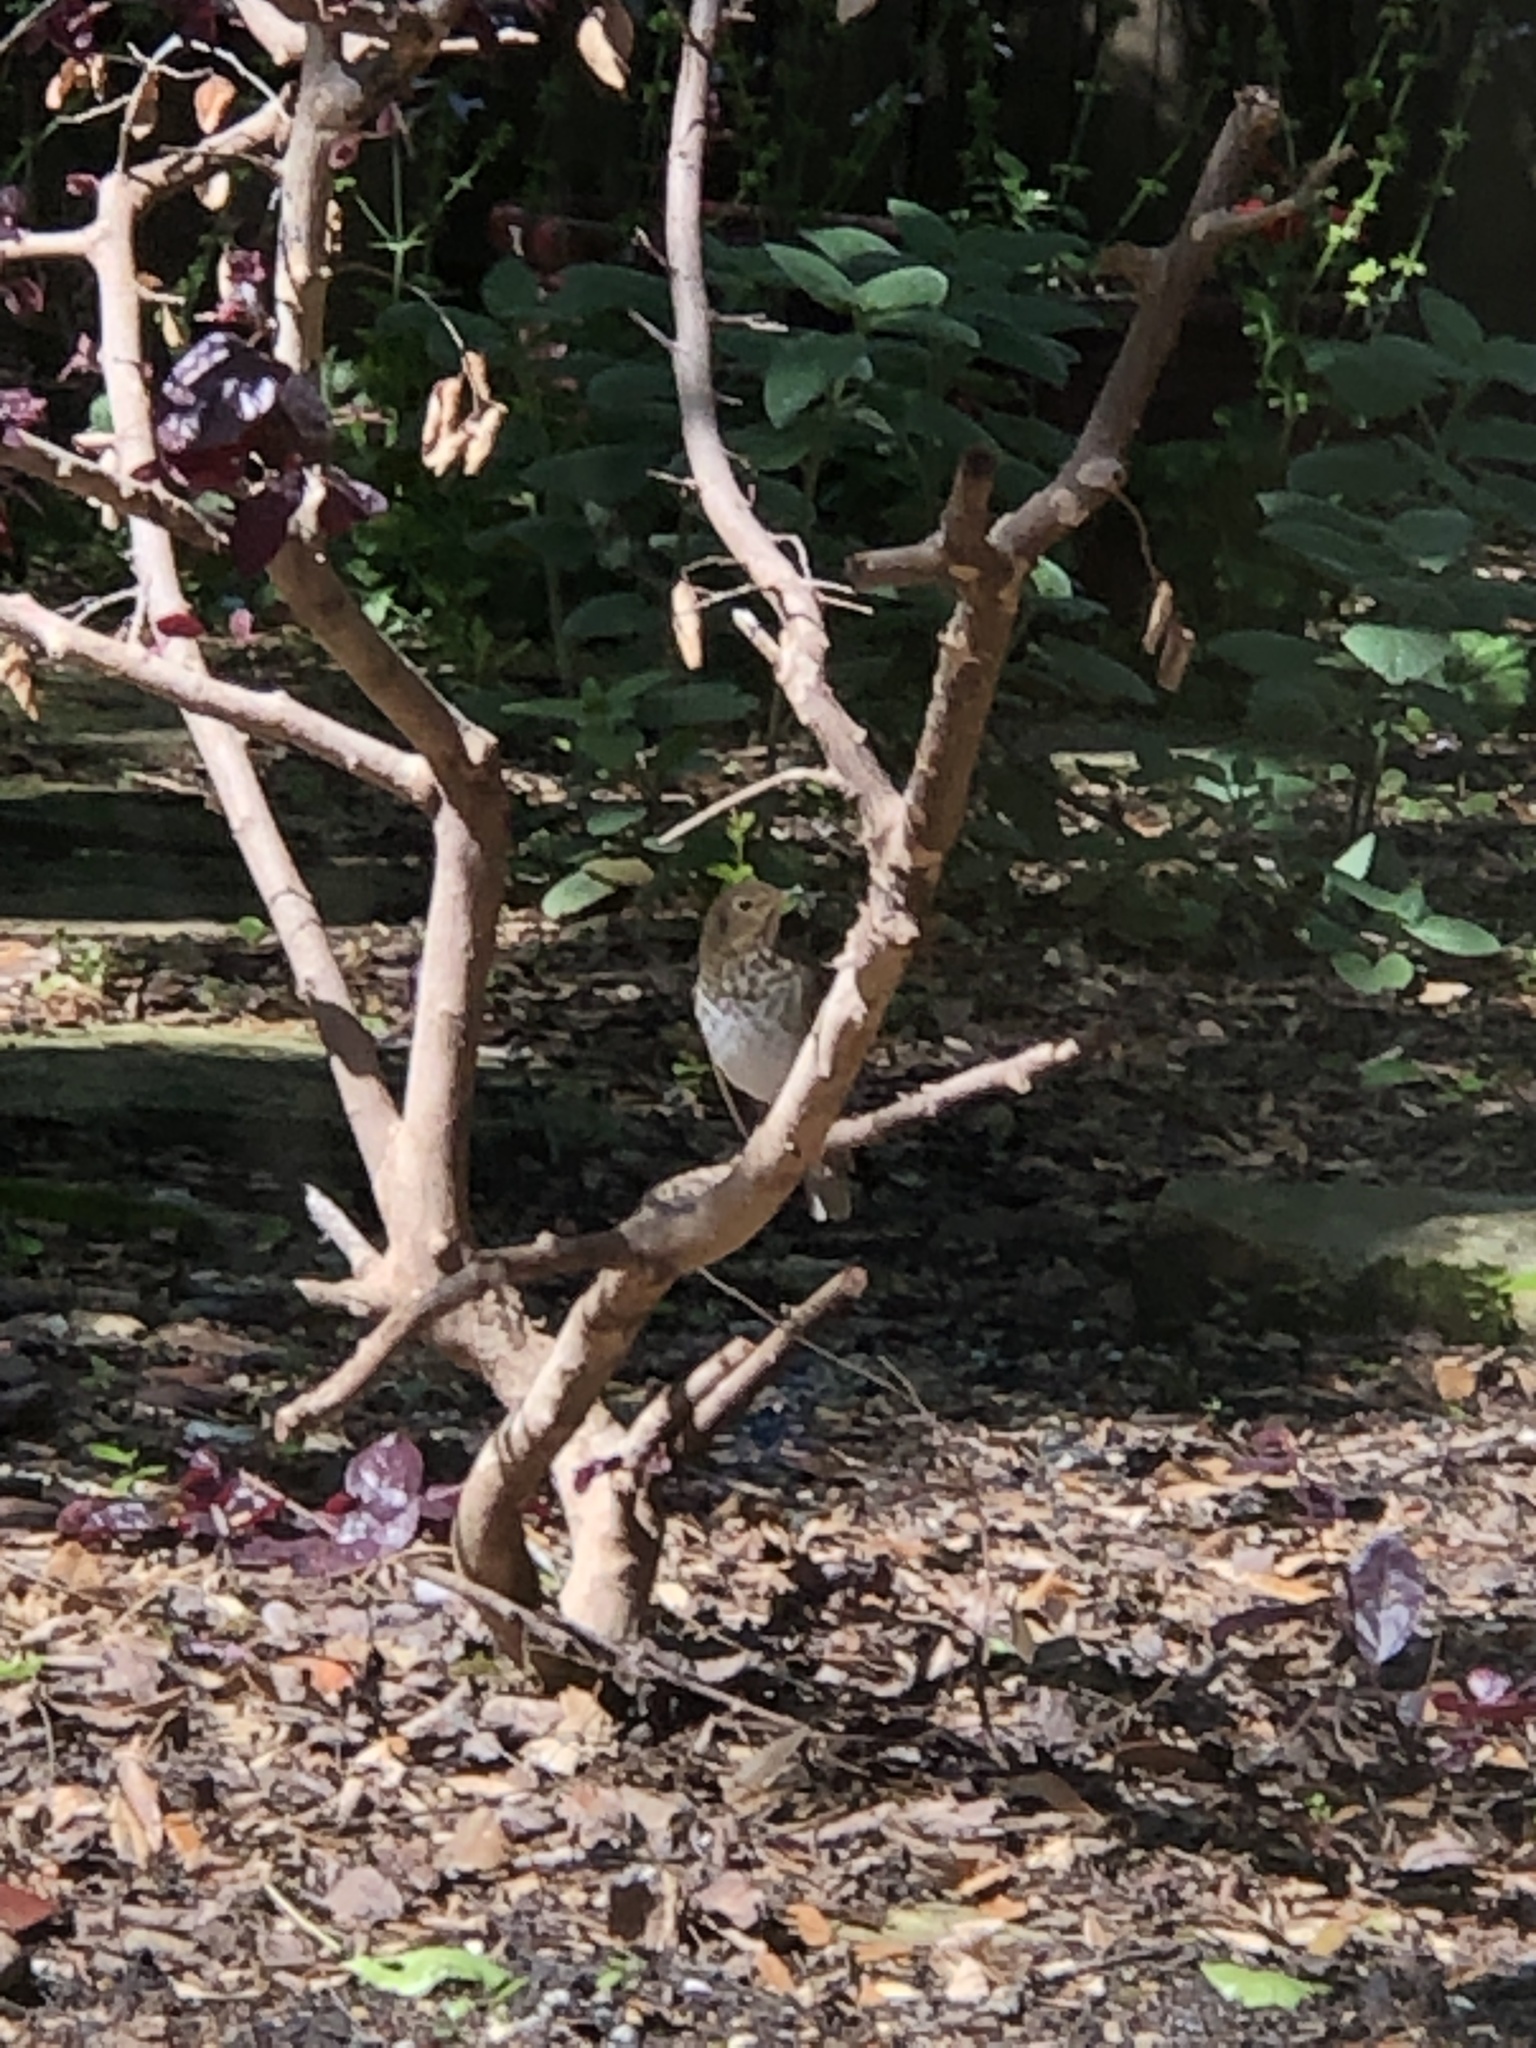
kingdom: Animalia
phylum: Chordata
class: Aves
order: Passeriformes
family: Turdidae
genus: Catharus
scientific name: Catharus guttatus
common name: Hermit thrush
